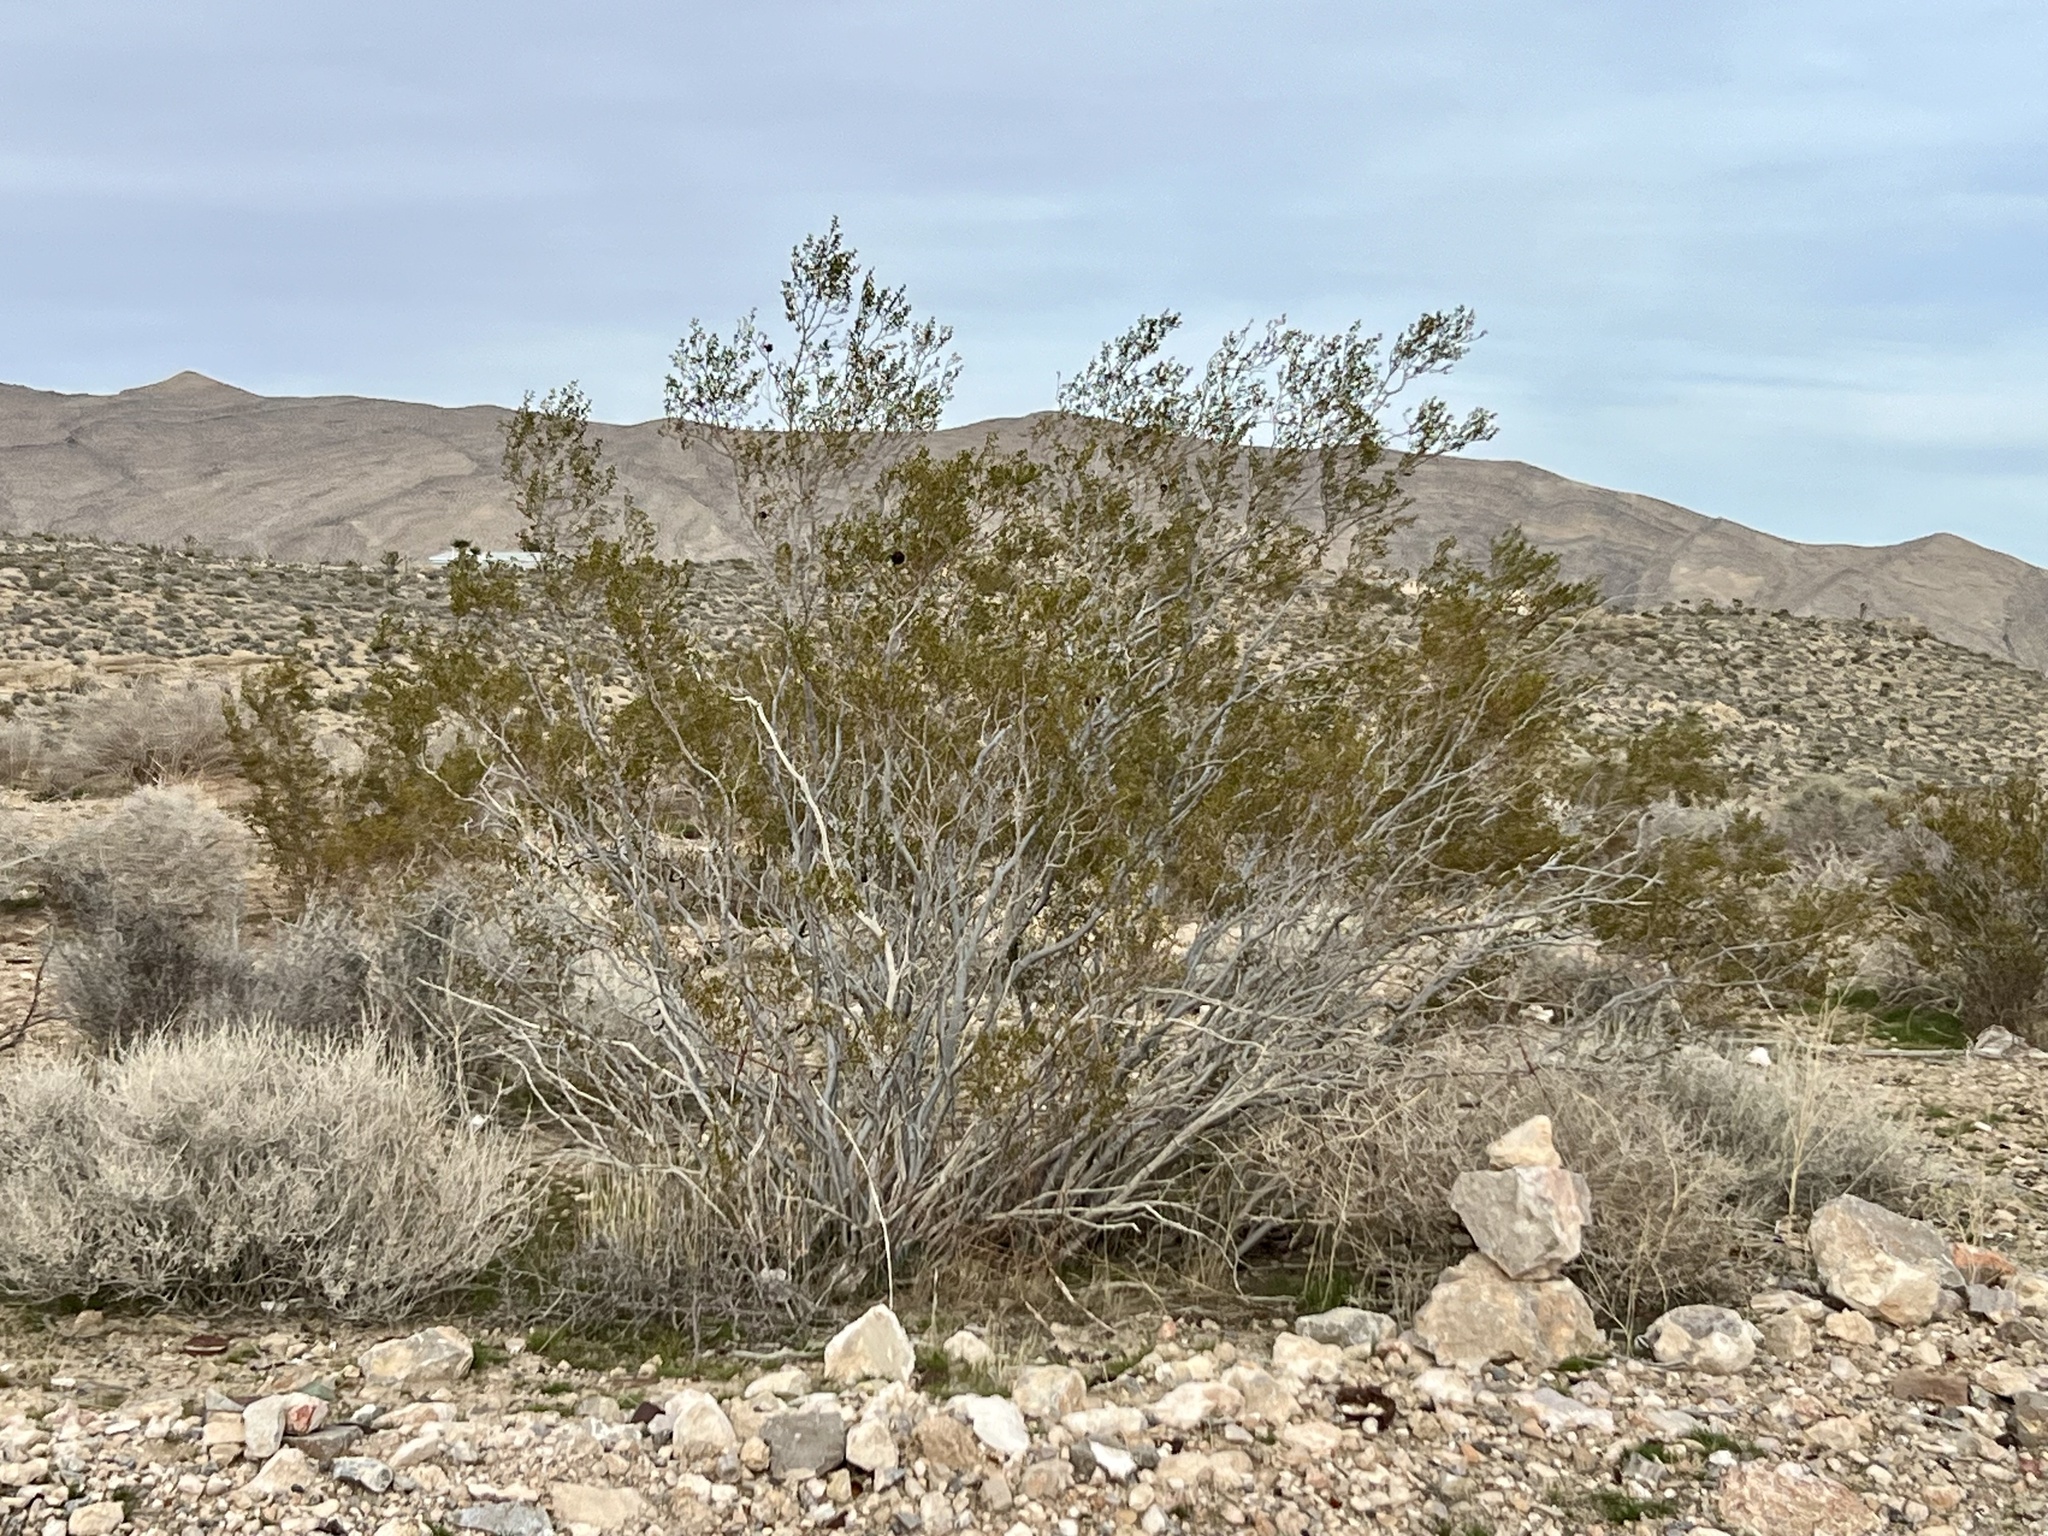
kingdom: Plantae
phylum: Tracheophyta
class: Magnoliopsida
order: Zygophyllales
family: Zygophyllaceae
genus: Larrea
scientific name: Larrea tridentata
